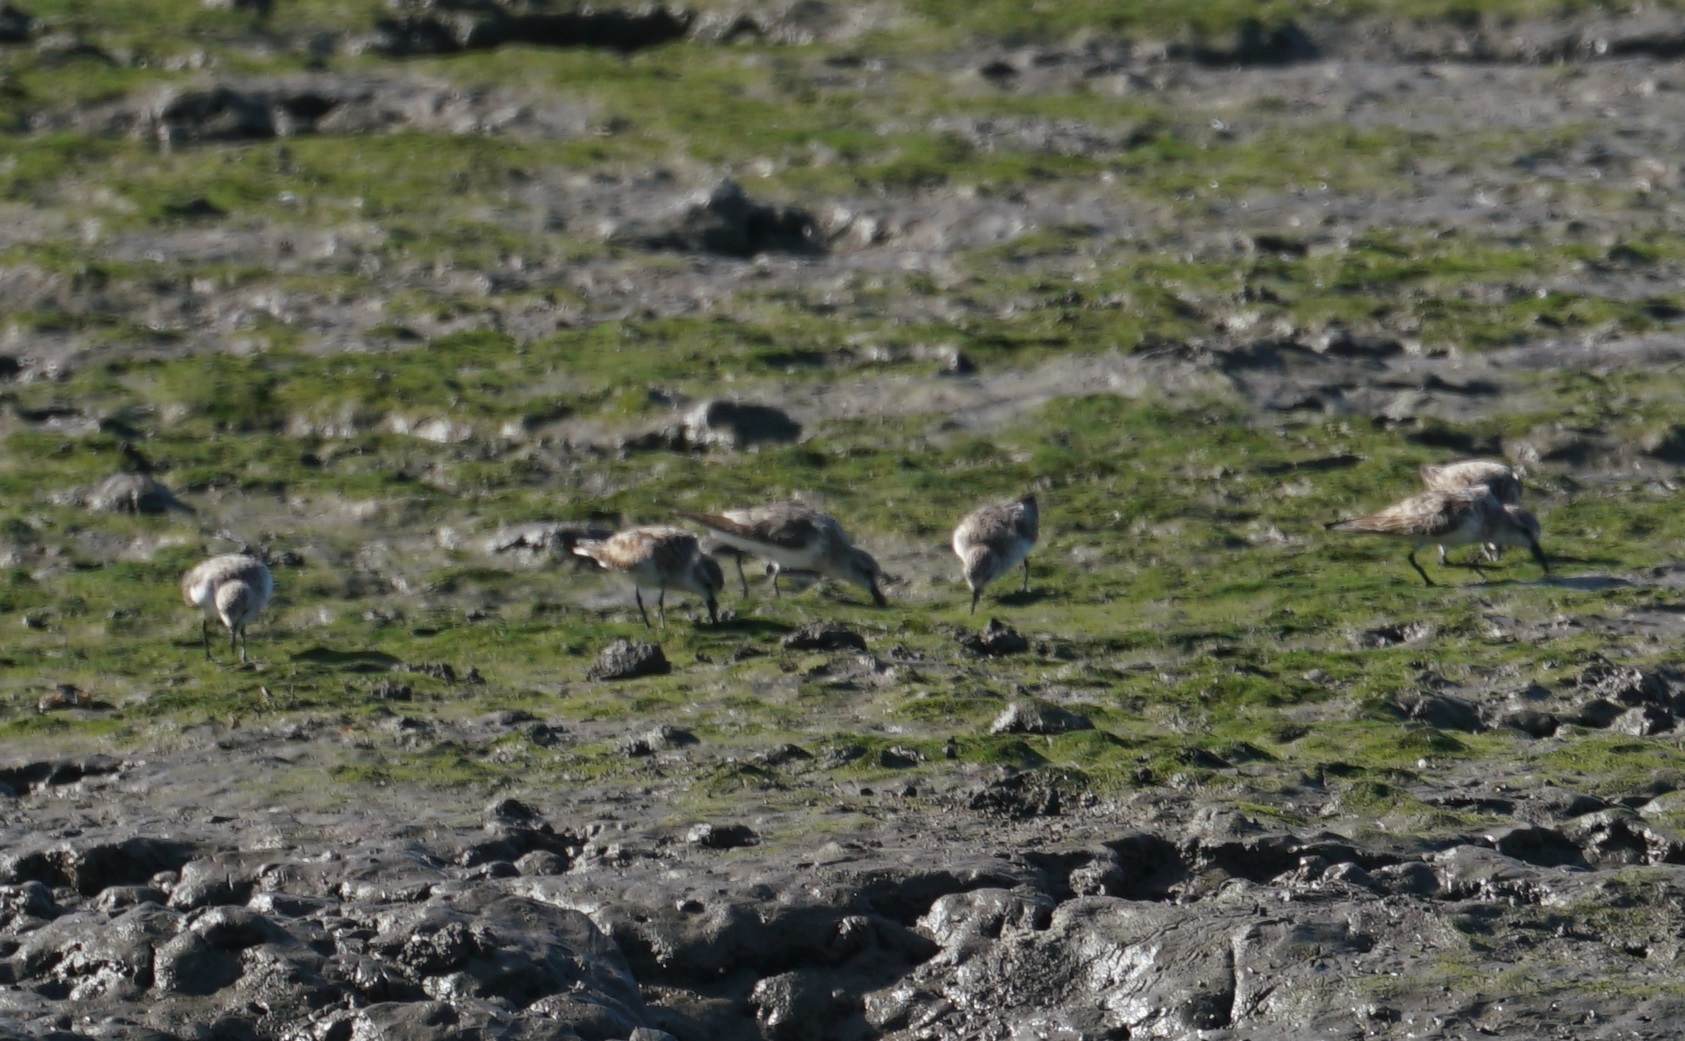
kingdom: Animalia
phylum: Chordata
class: Aves
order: Charadriiformes
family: Scolopacidae
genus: Calidris
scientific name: Calidris ruficollis
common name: Red-necked stint
